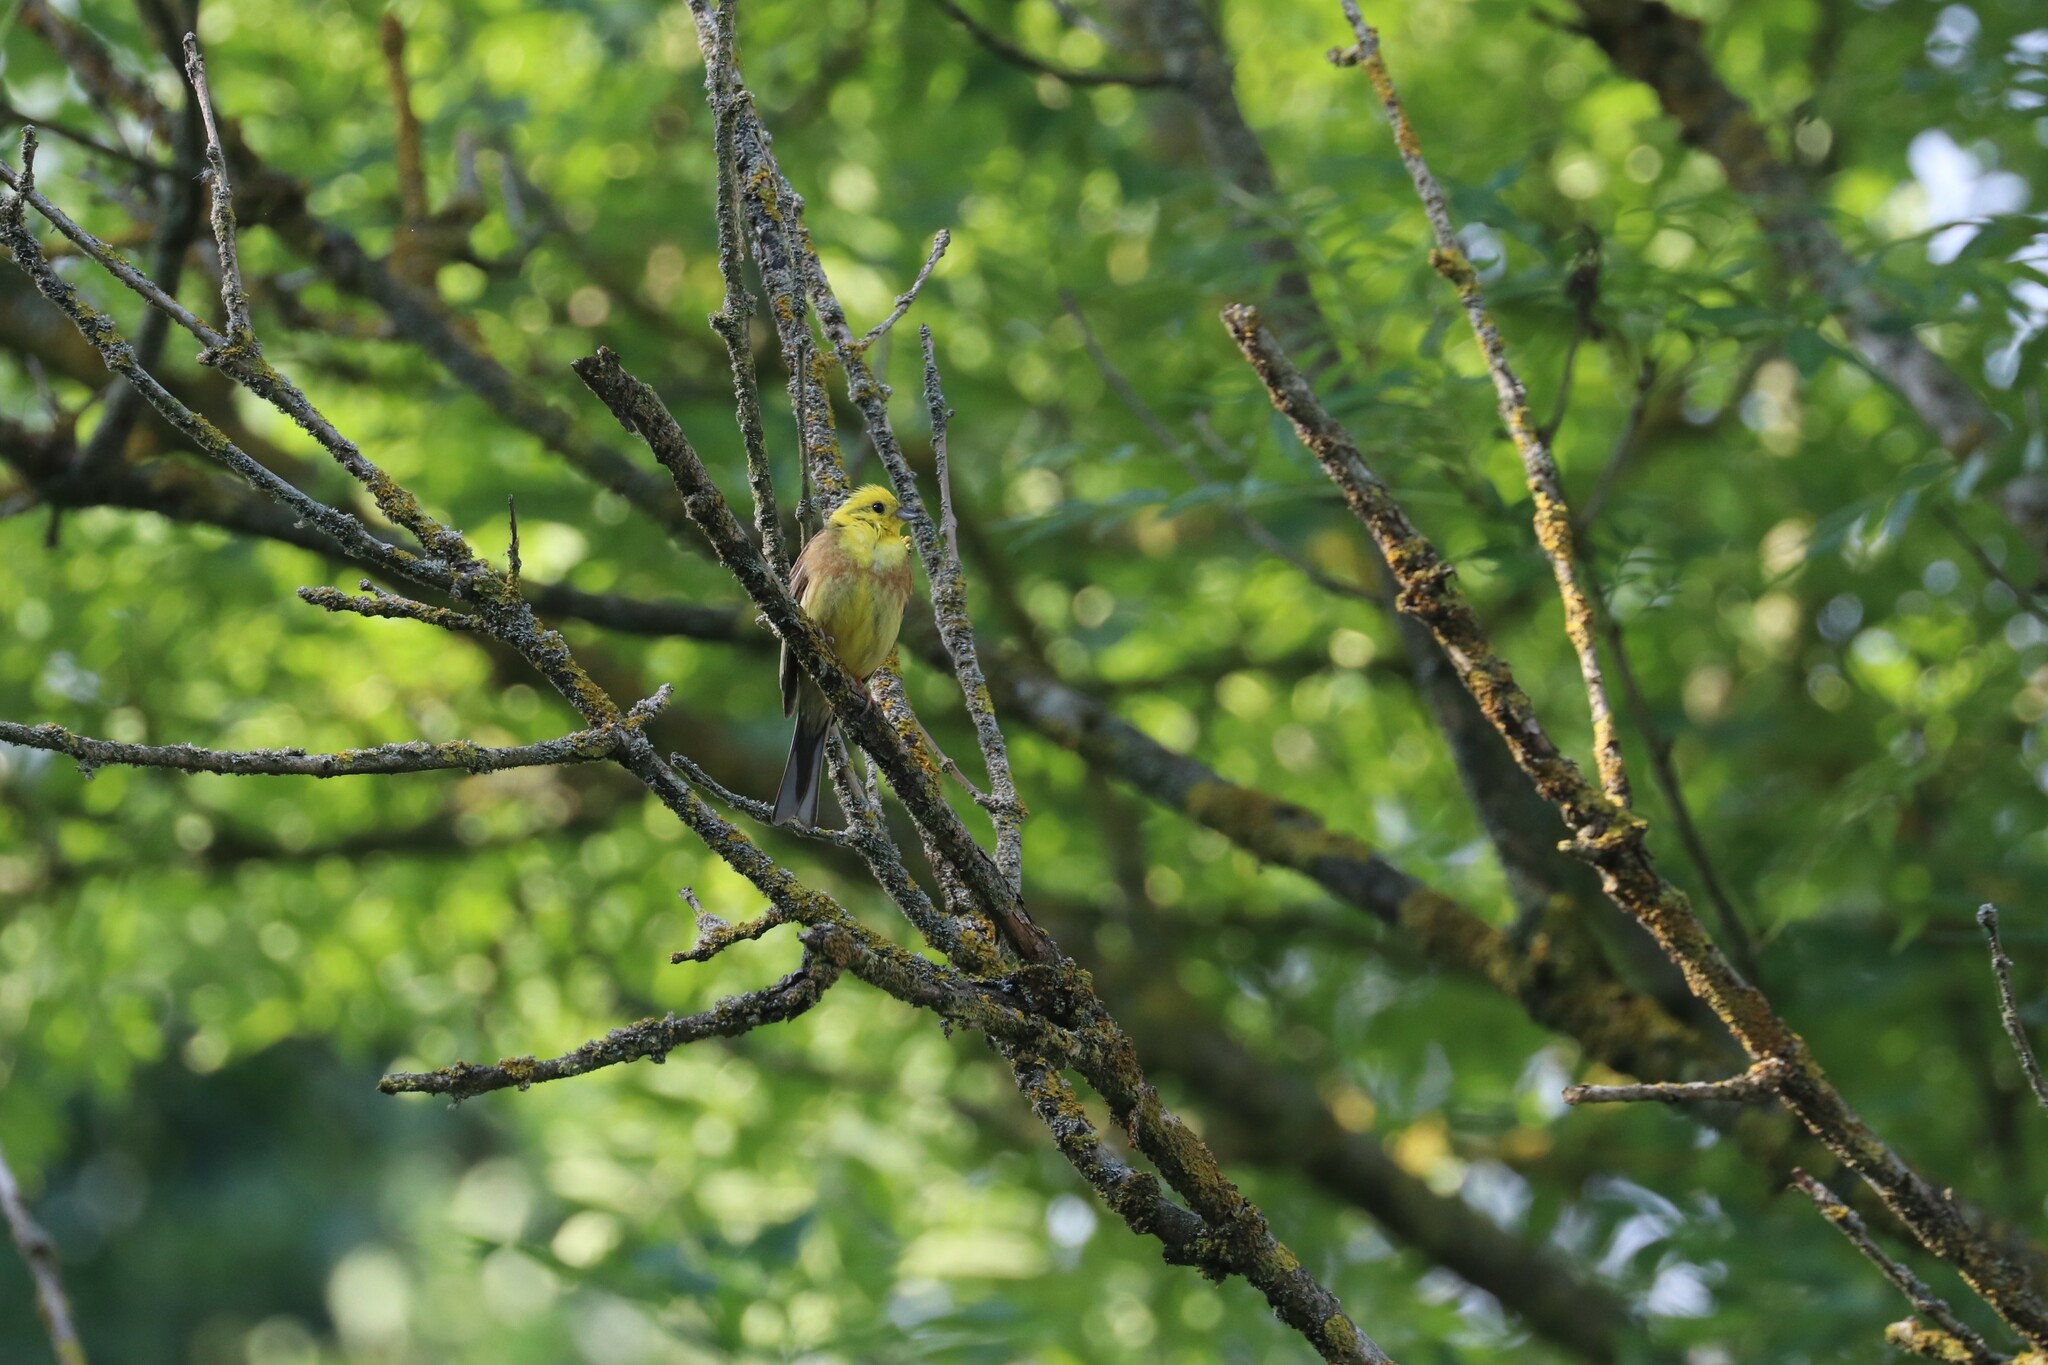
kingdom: Animalia
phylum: Chordata
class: Aves
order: Passeriformes
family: Emberizidae
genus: Emberiza
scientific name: Emberiza citrinella
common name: Yellowhammer
